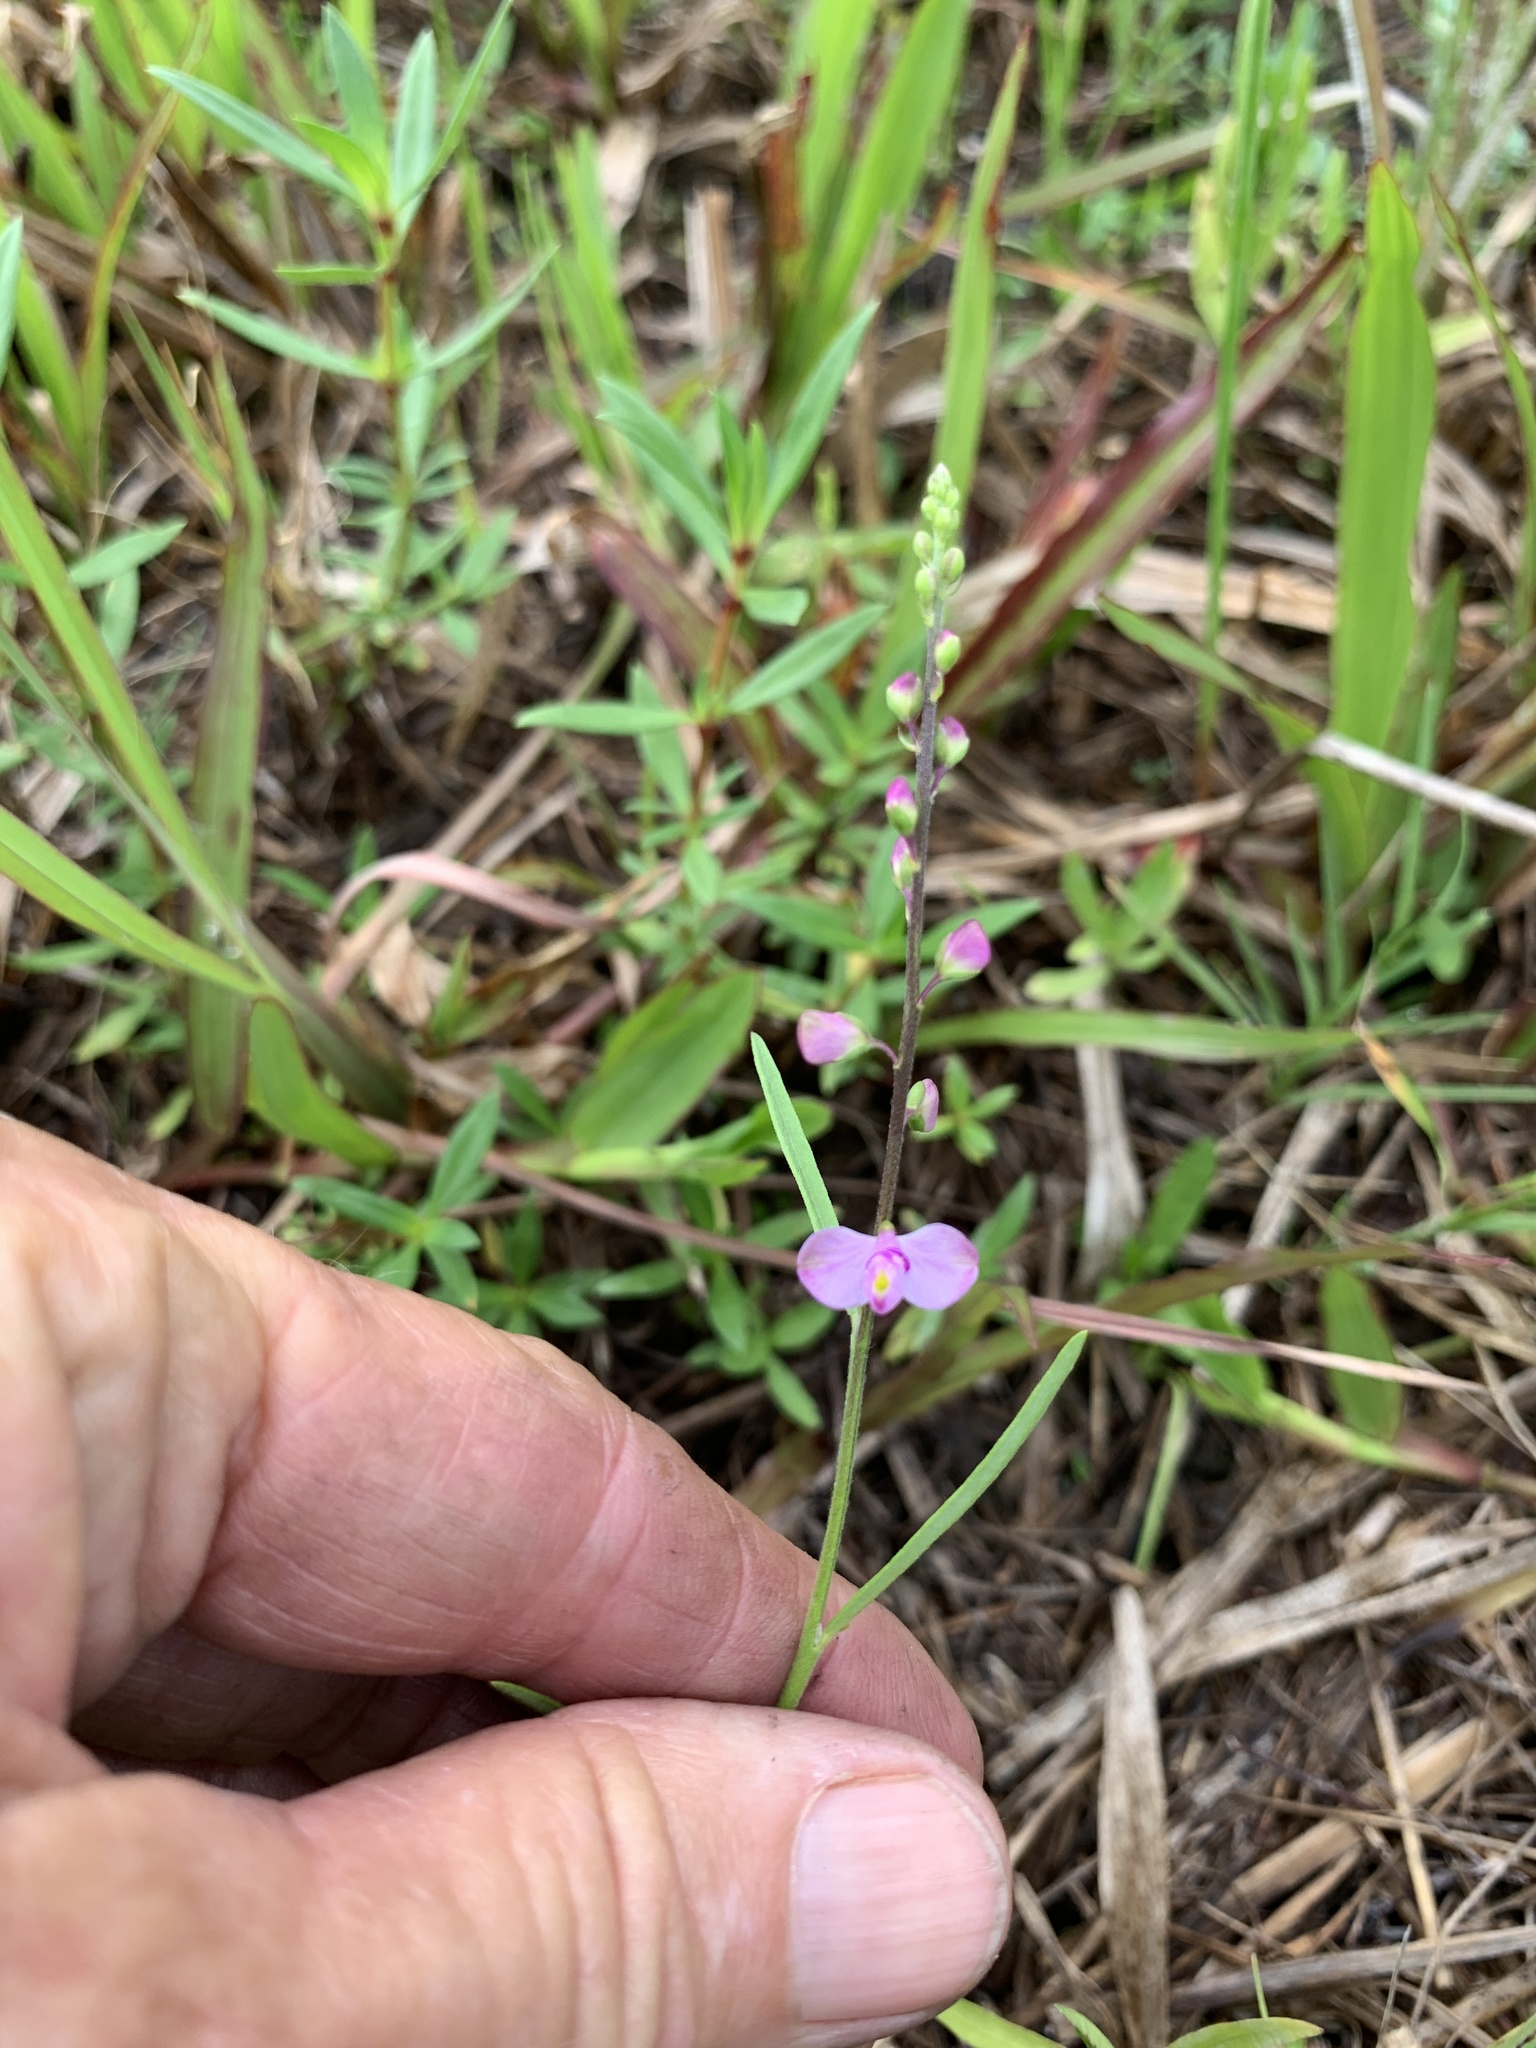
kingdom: Plantae
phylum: Tracheophyta
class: Magnoliopsida
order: Fabales
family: Polygalaceae
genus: Asemeia
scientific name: Asemeia grandiflora
